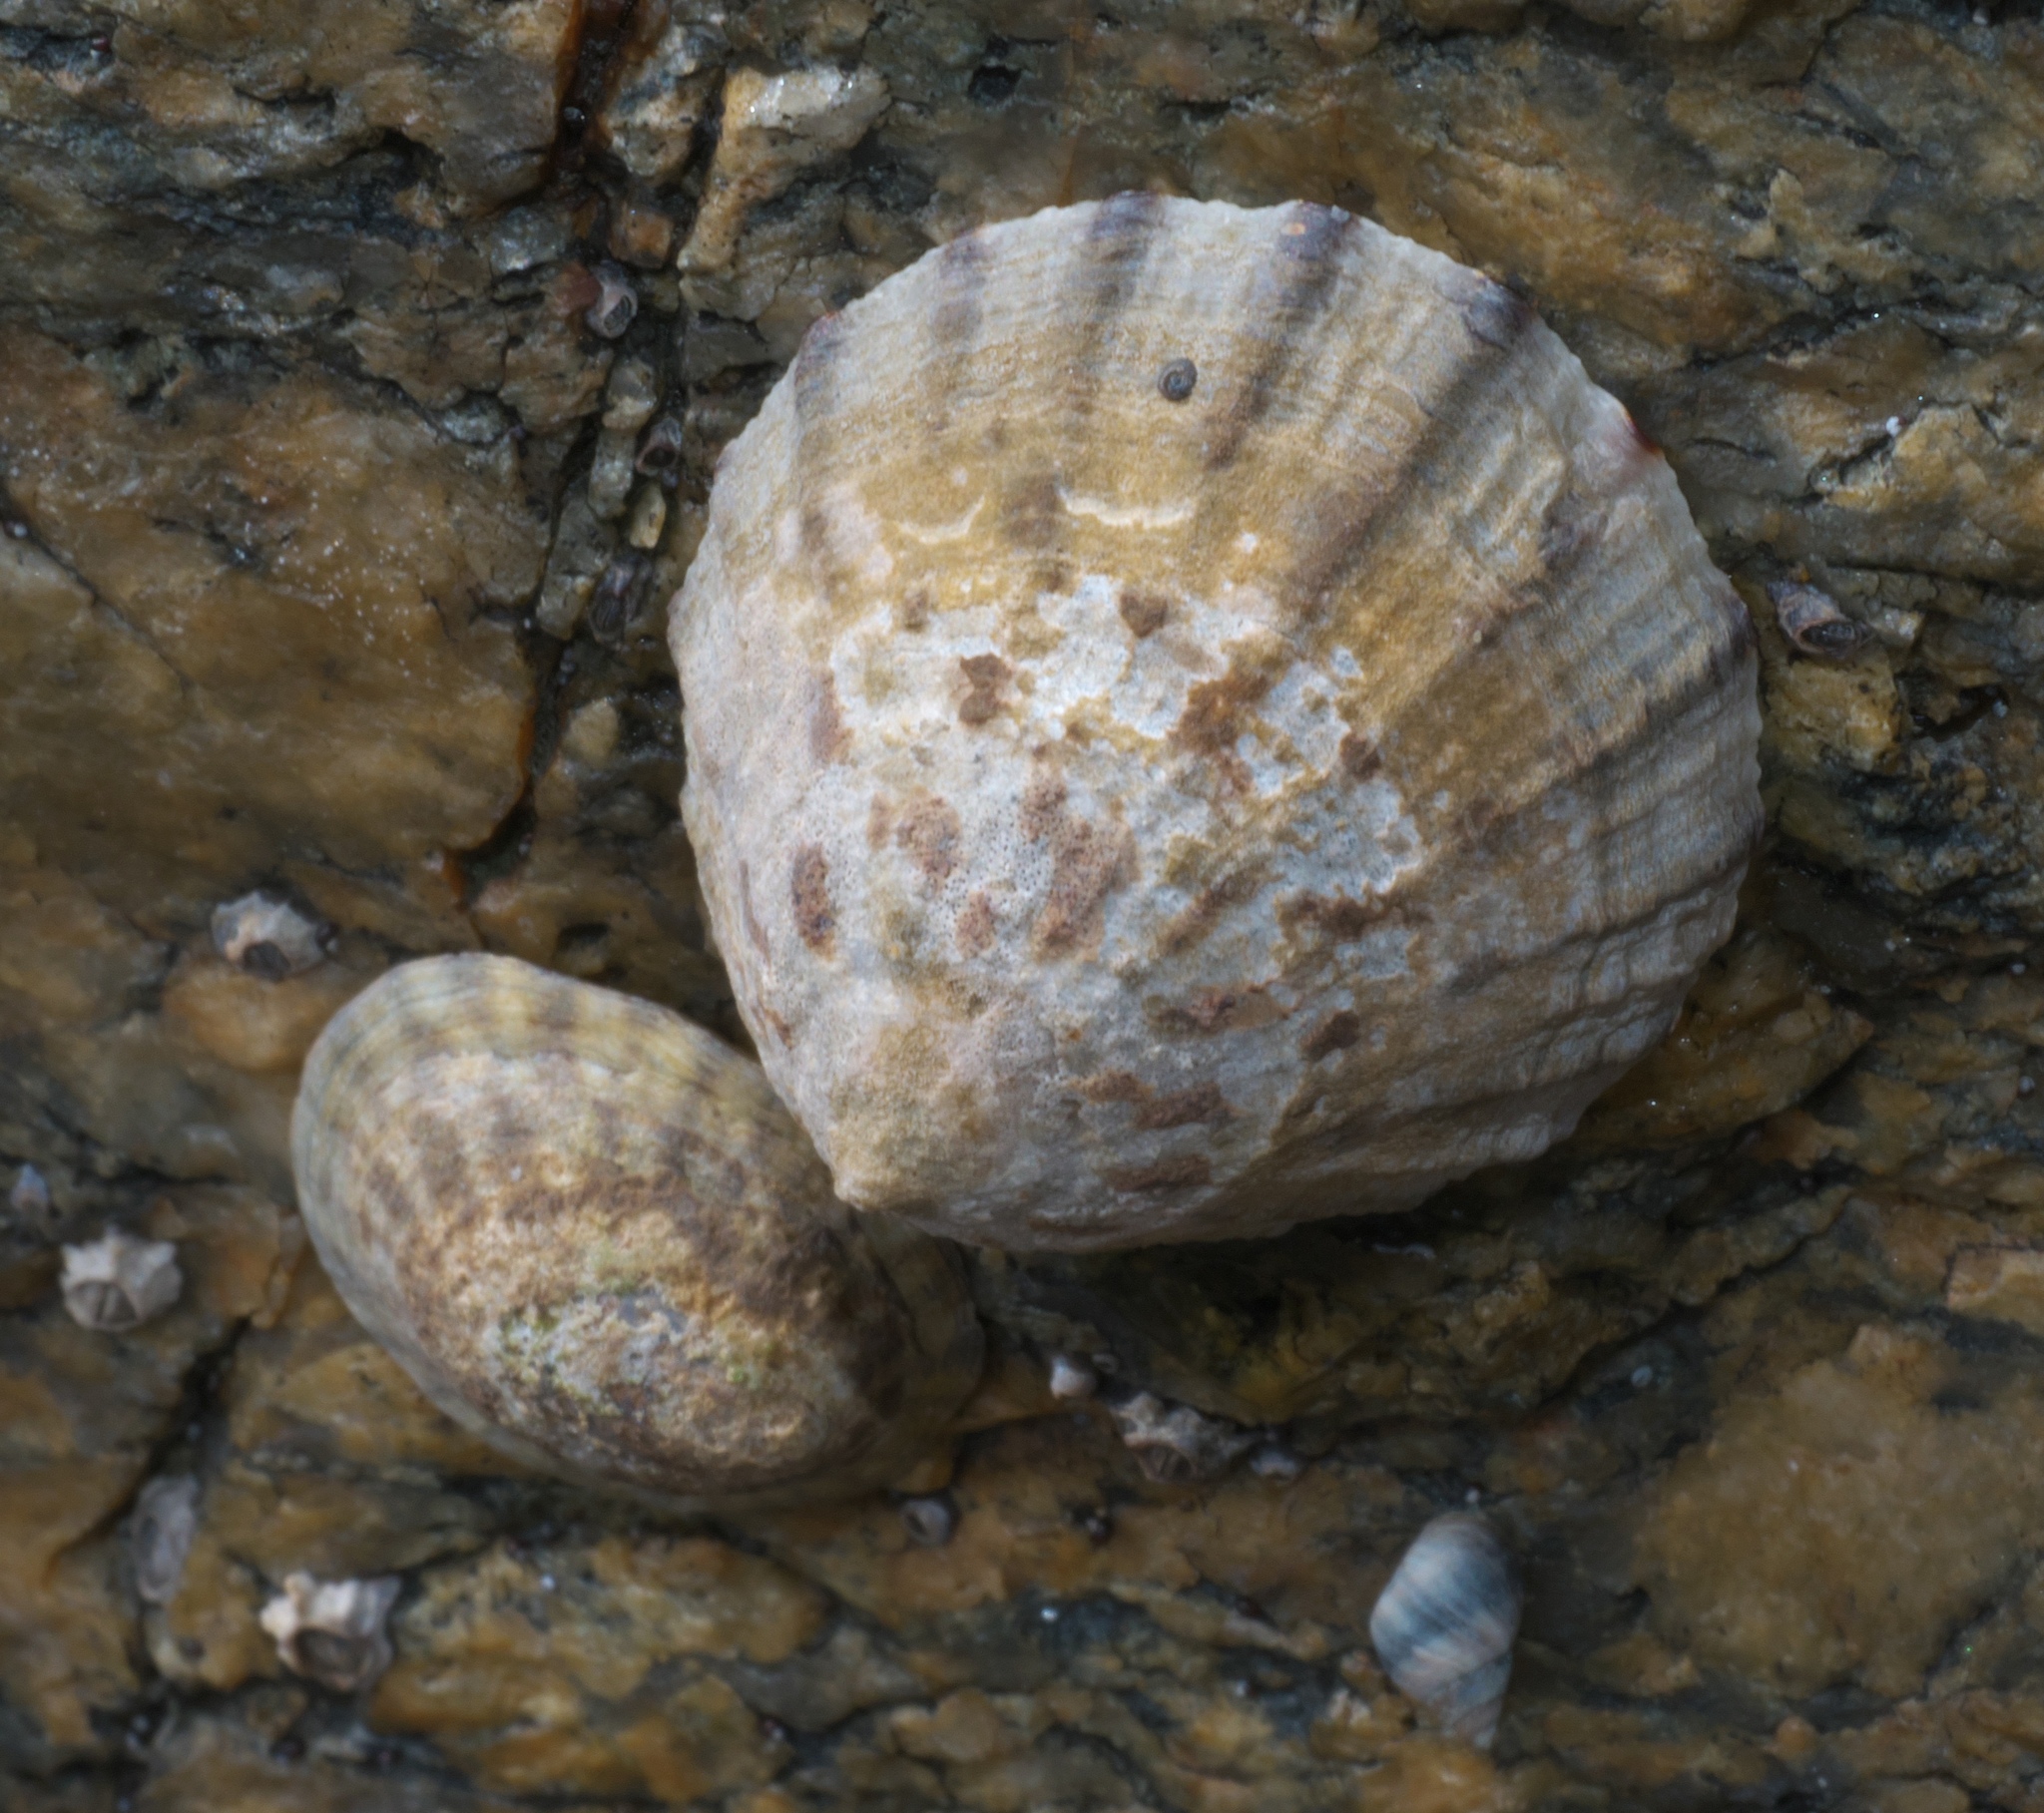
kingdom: Animalia
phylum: Mollusca
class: Gastropoda
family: Nacellidae
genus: Cellana
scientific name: Cellana radians
